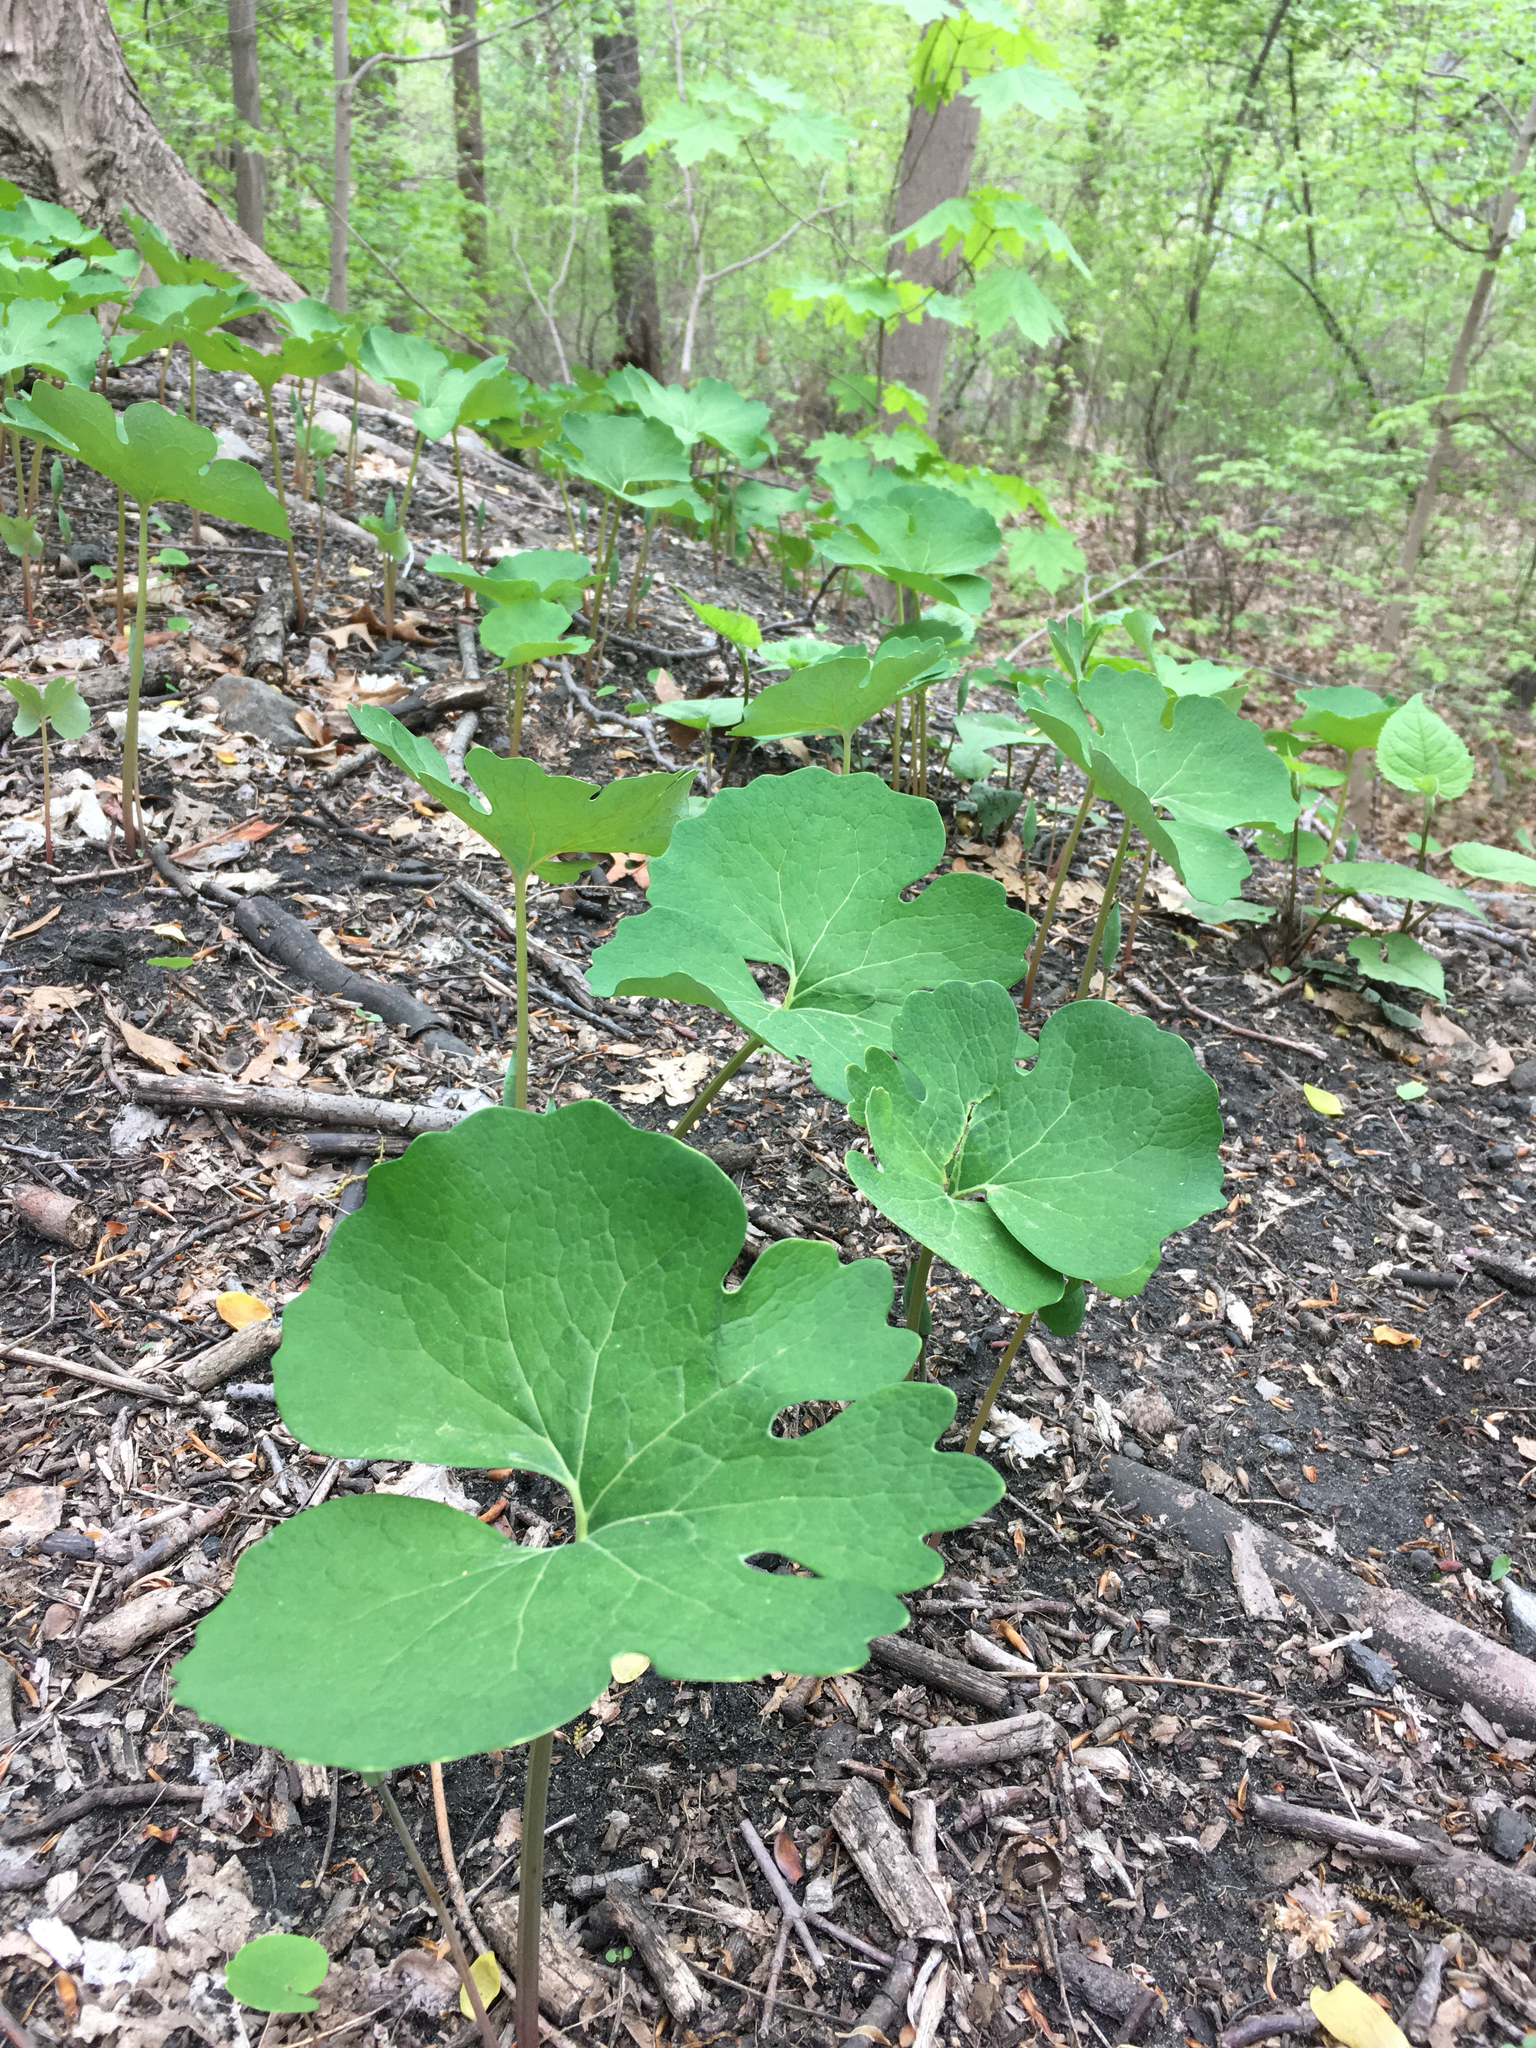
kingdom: Plantae
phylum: Tracheophyta
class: Magnoliopsida
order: Ranunculales
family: Papaveraceae
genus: Sanguinaria
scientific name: Sanguinaria canadensis
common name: Bloodroot
